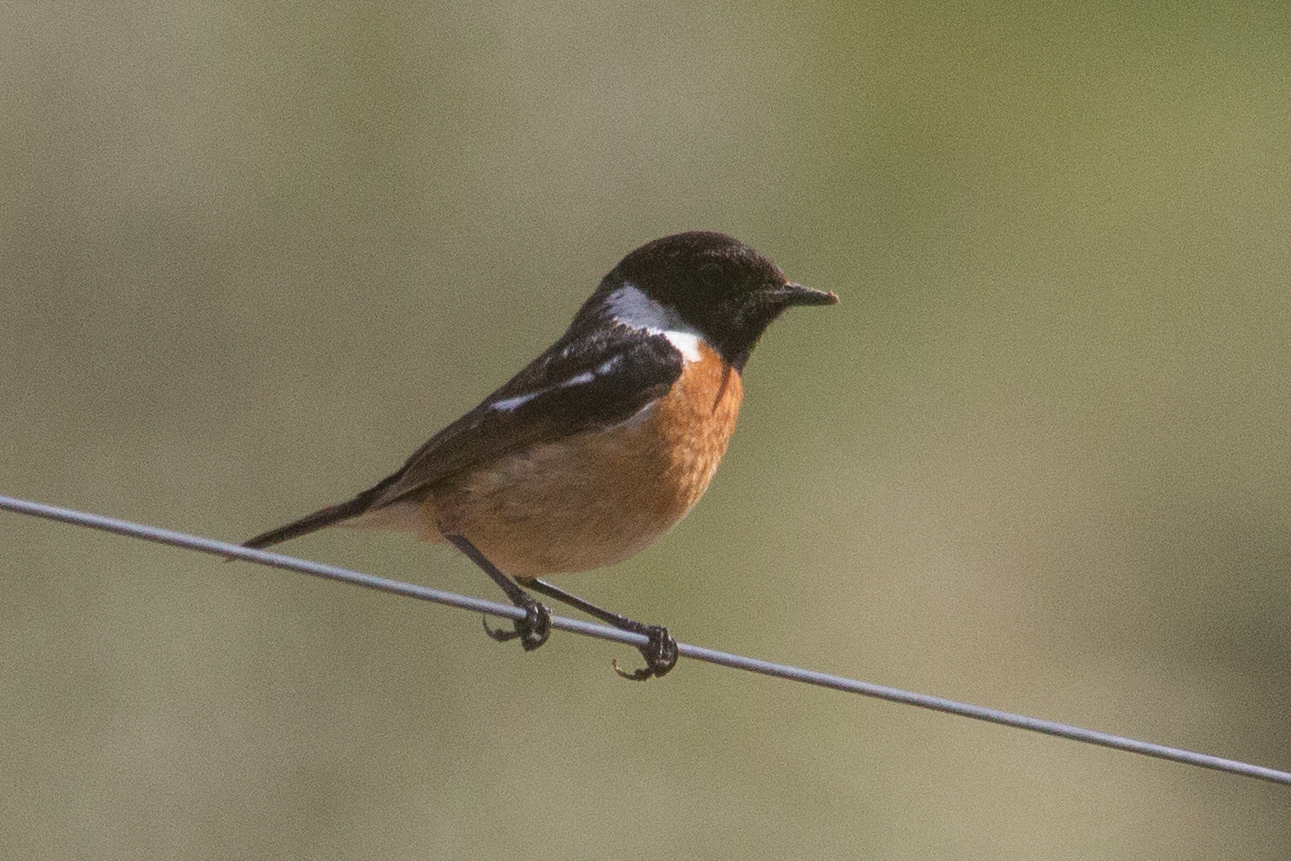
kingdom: Animalia
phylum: Chordata
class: Aves
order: Passeriformes
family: Muscicapidae
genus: Saxicola
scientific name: Saxicola rubicola
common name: European stonechat
